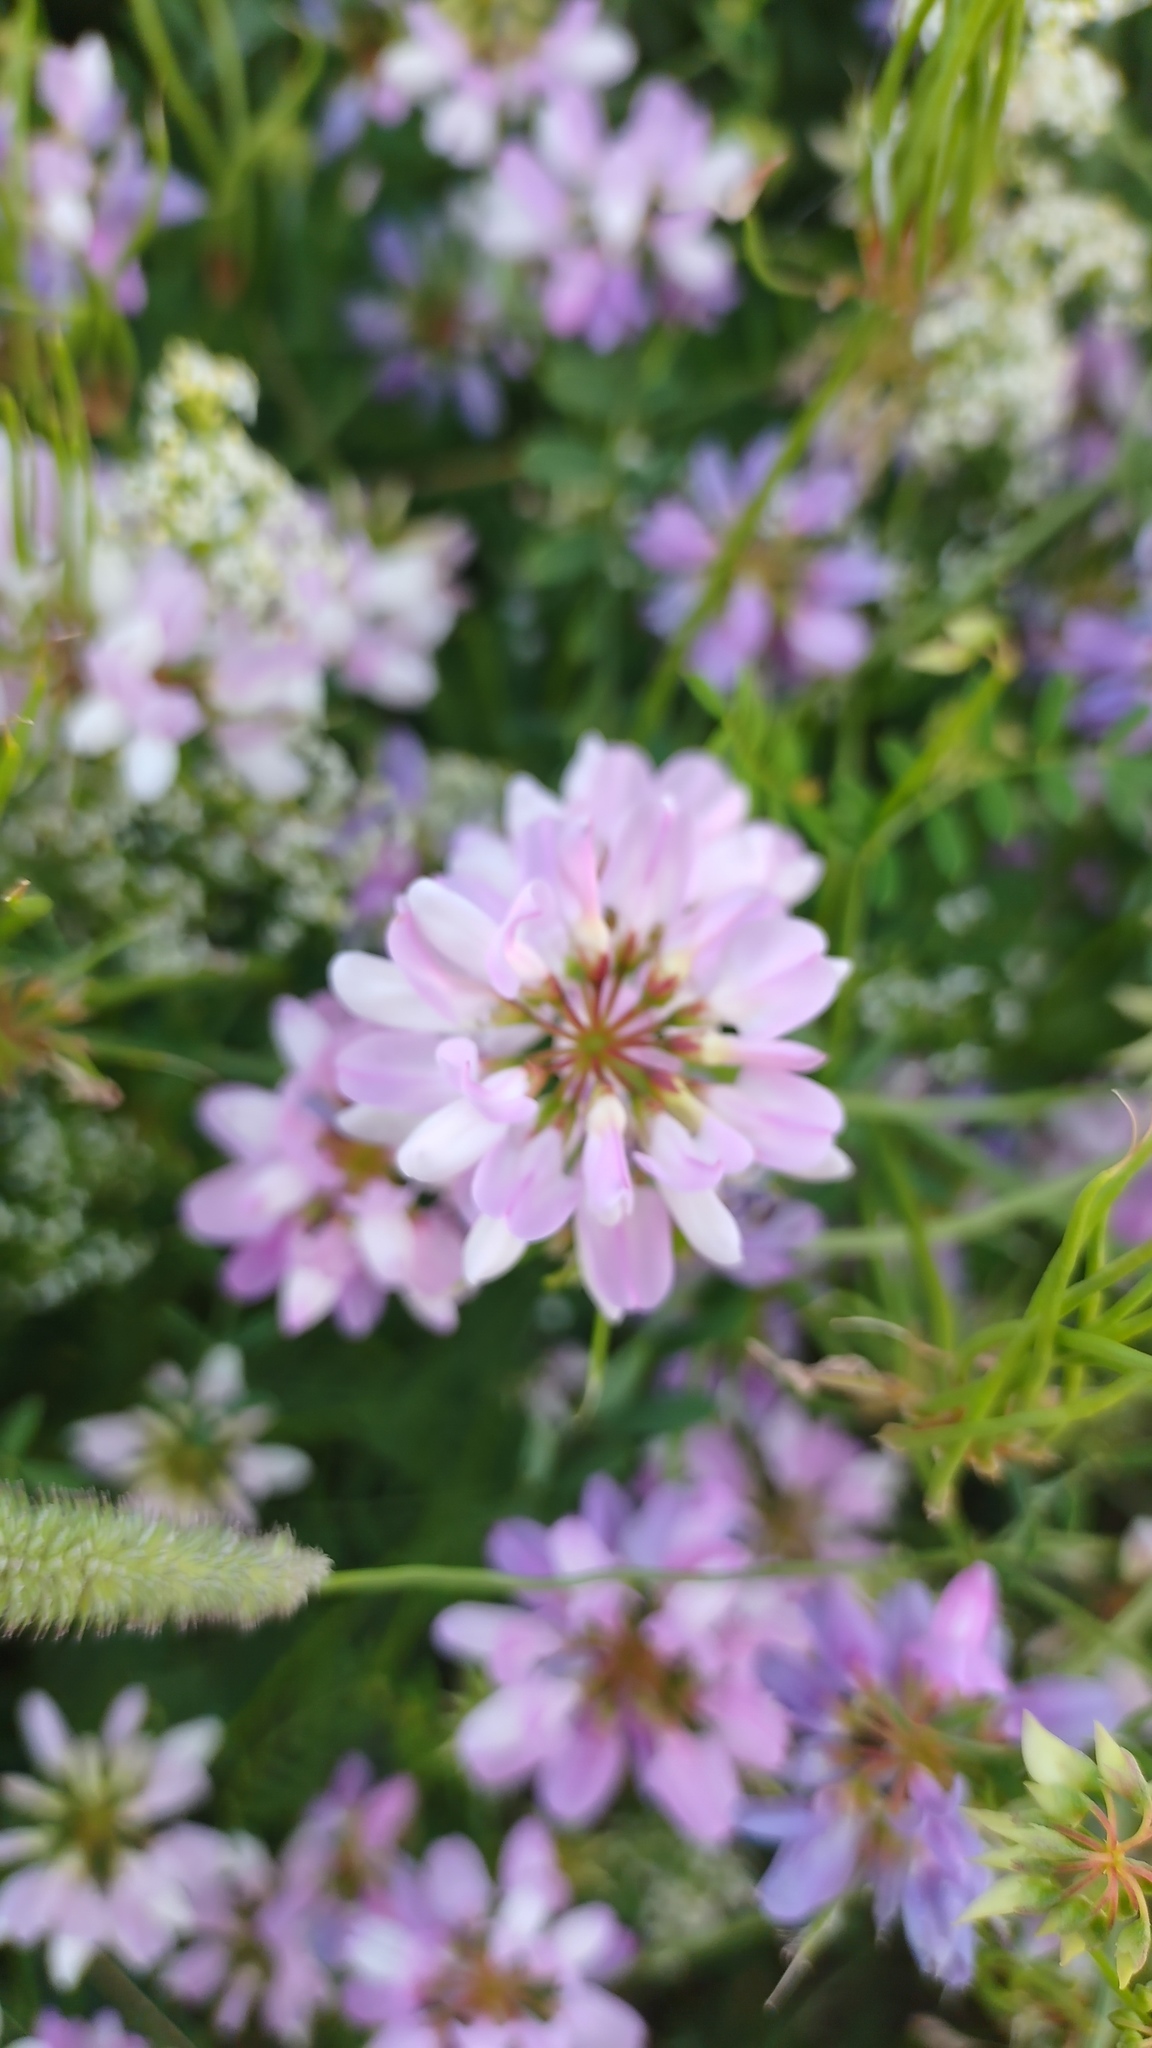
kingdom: Plantae
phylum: Tracheophyta
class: Magnoliopsida
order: Fabales
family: Fabaceae
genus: Coronilla
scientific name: Coronilla varia
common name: Crownvetch
